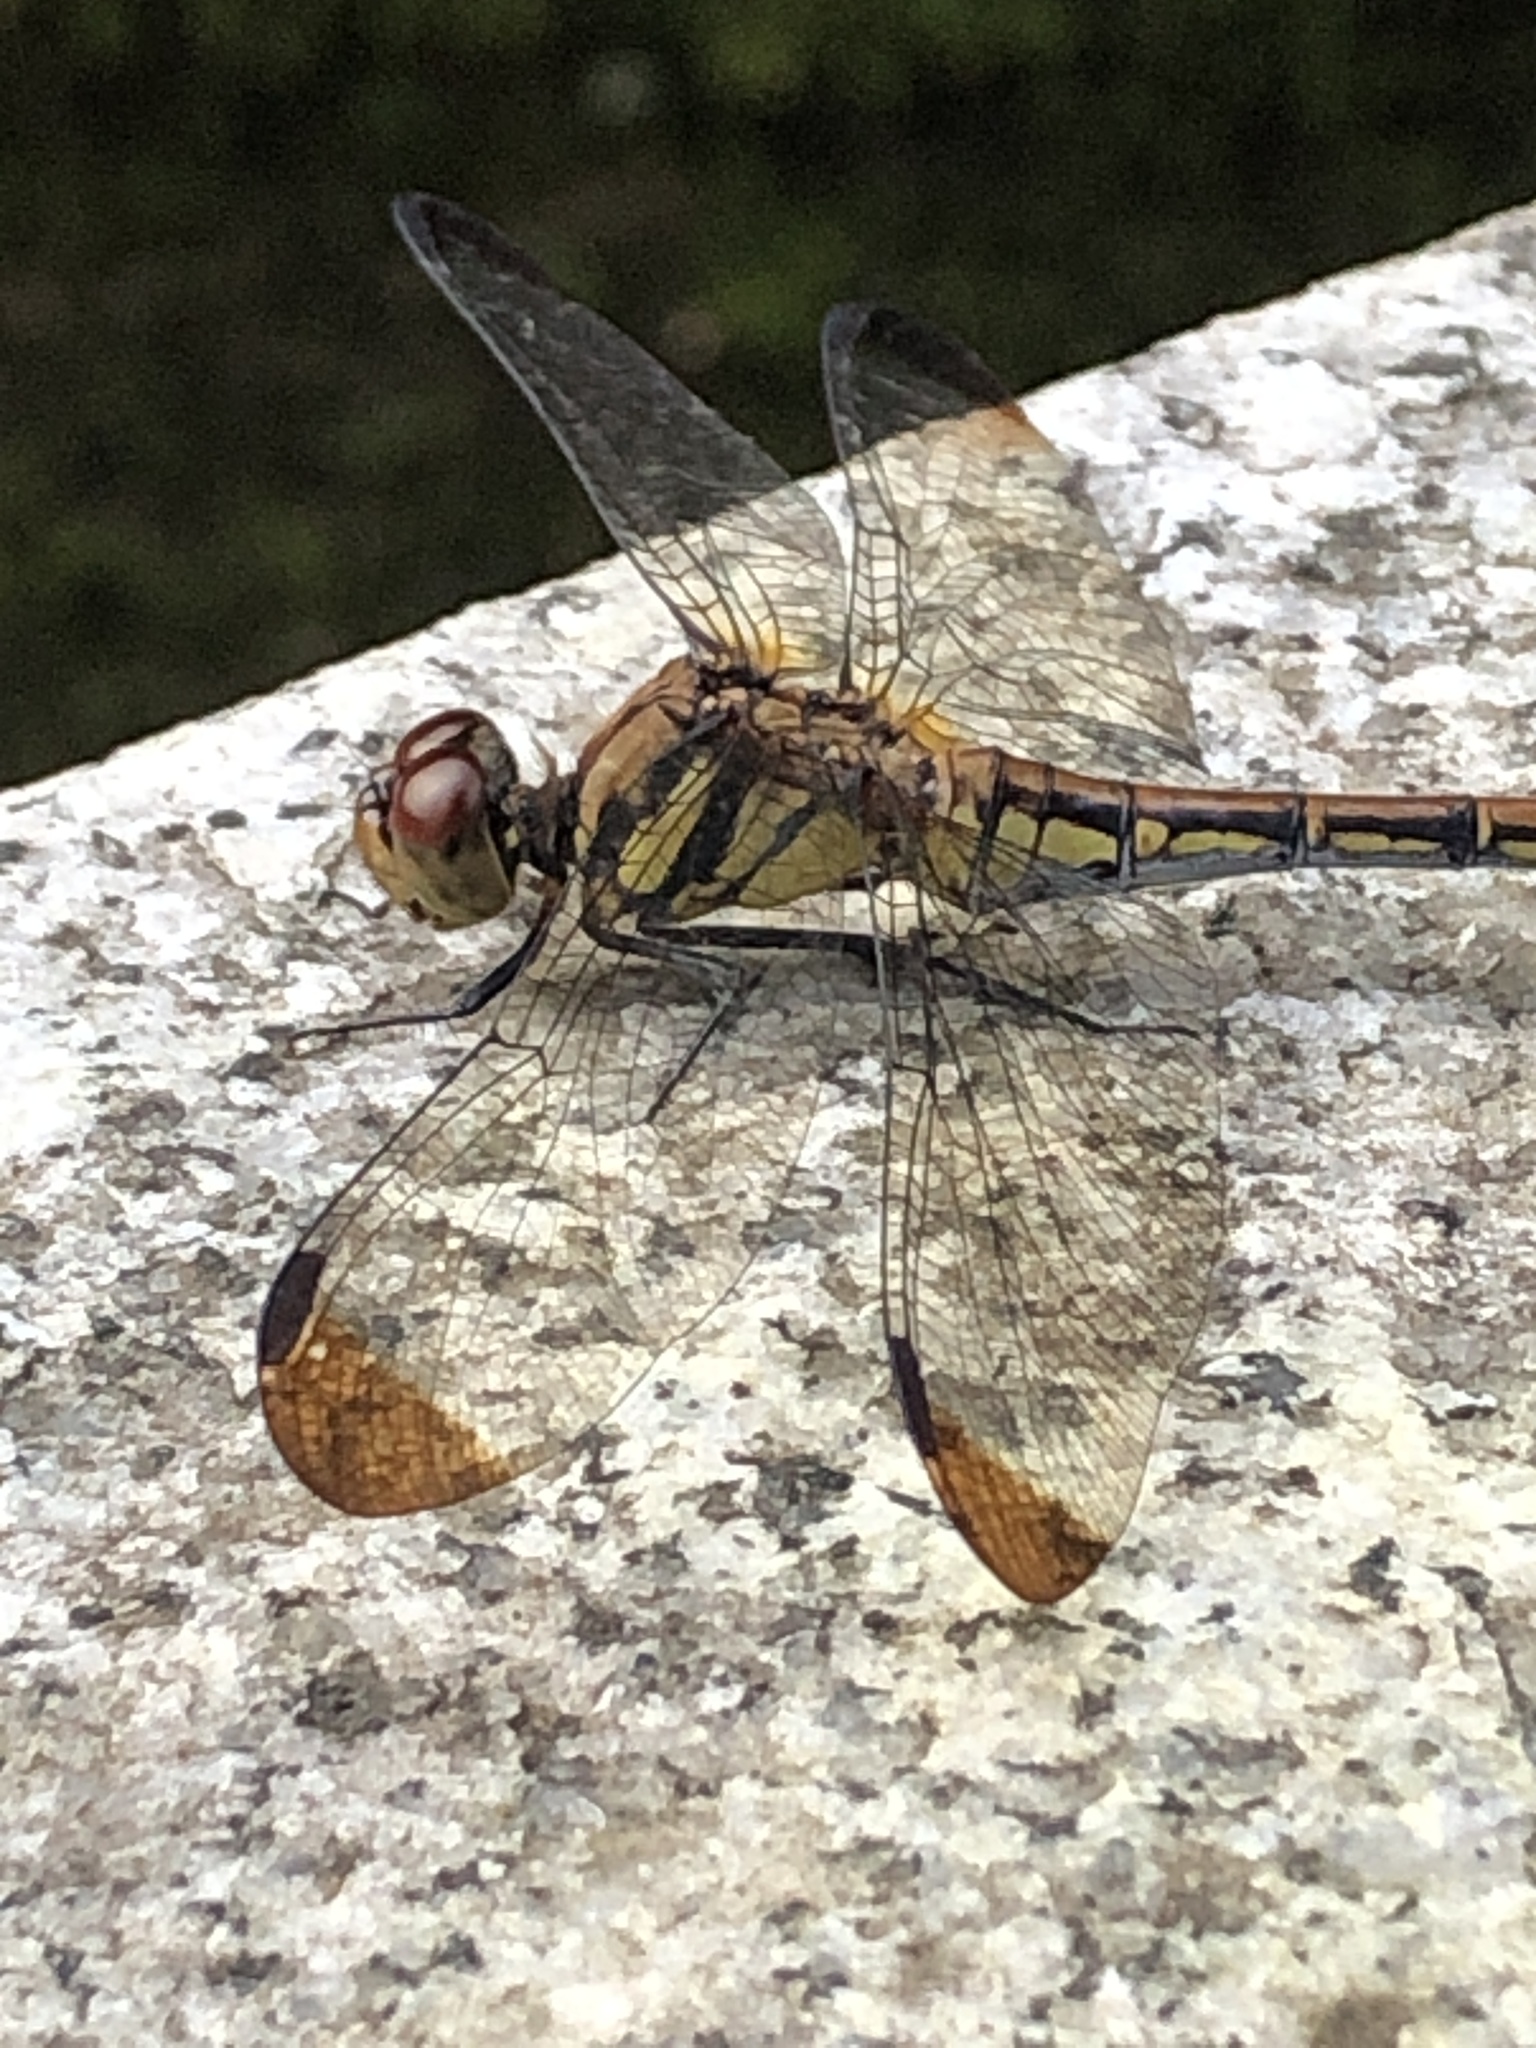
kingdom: Animalia
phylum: Arthropoda
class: Insecta
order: Odonata
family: Libellulidae
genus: Sympetrum
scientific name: Sympetrum infuscatum
